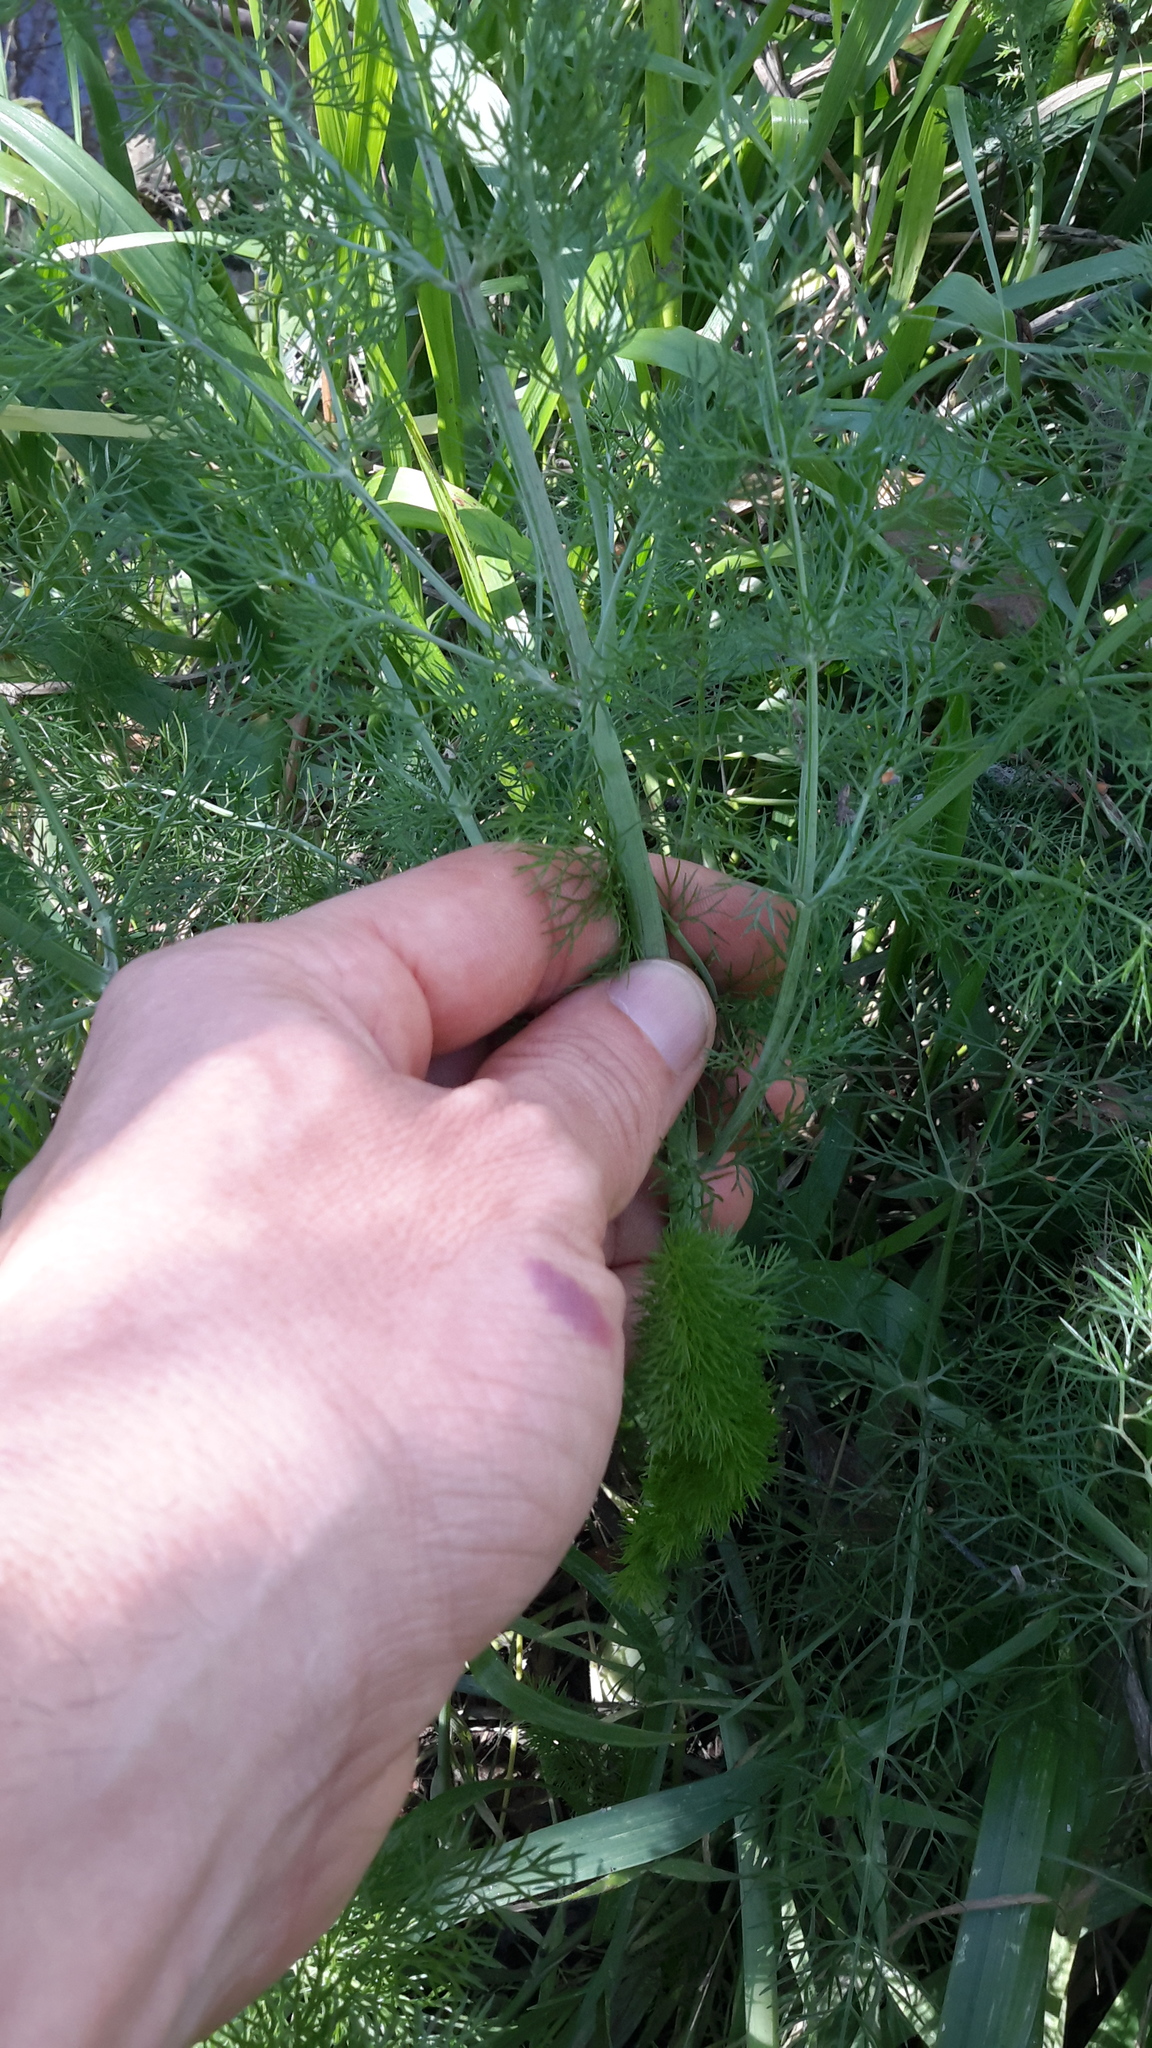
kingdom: Plantae
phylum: Tracheophyta
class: Magnoliopsida
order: Apiales
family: Apiaceae
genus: Foeniculum
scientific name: Foeniculum vulgare
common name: Fennel
